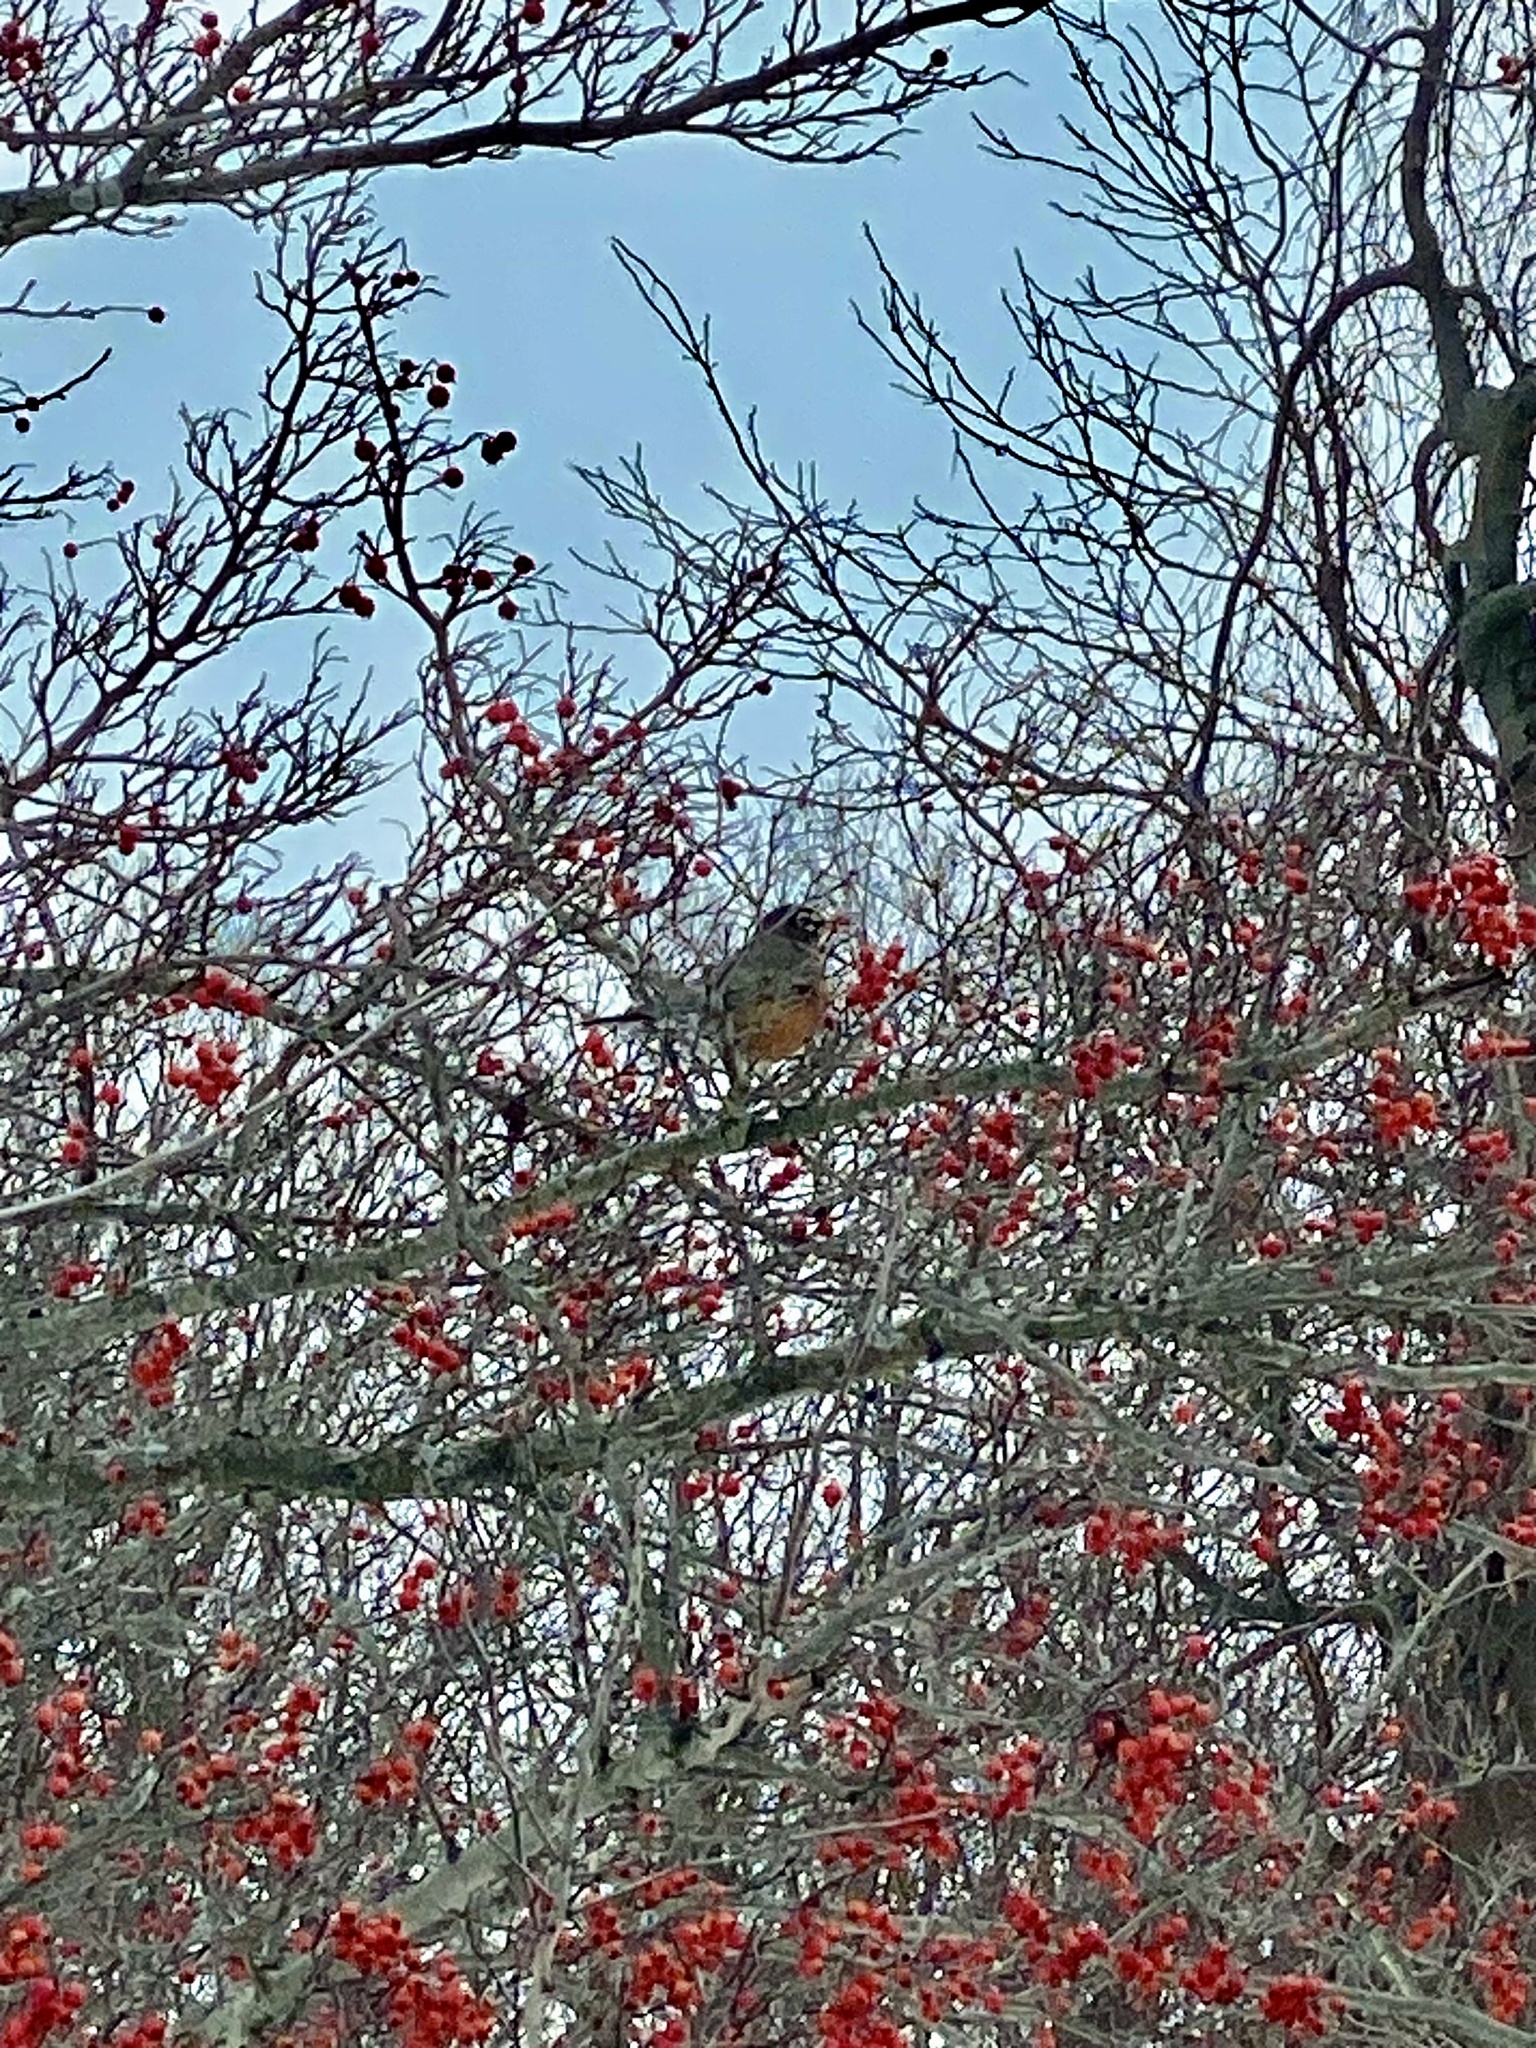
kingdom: Animalia
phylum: Chordata
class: Aves
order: Passeriformes
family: Turdidae
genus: Turdus
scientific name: Turdus migratorius
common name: American robin
